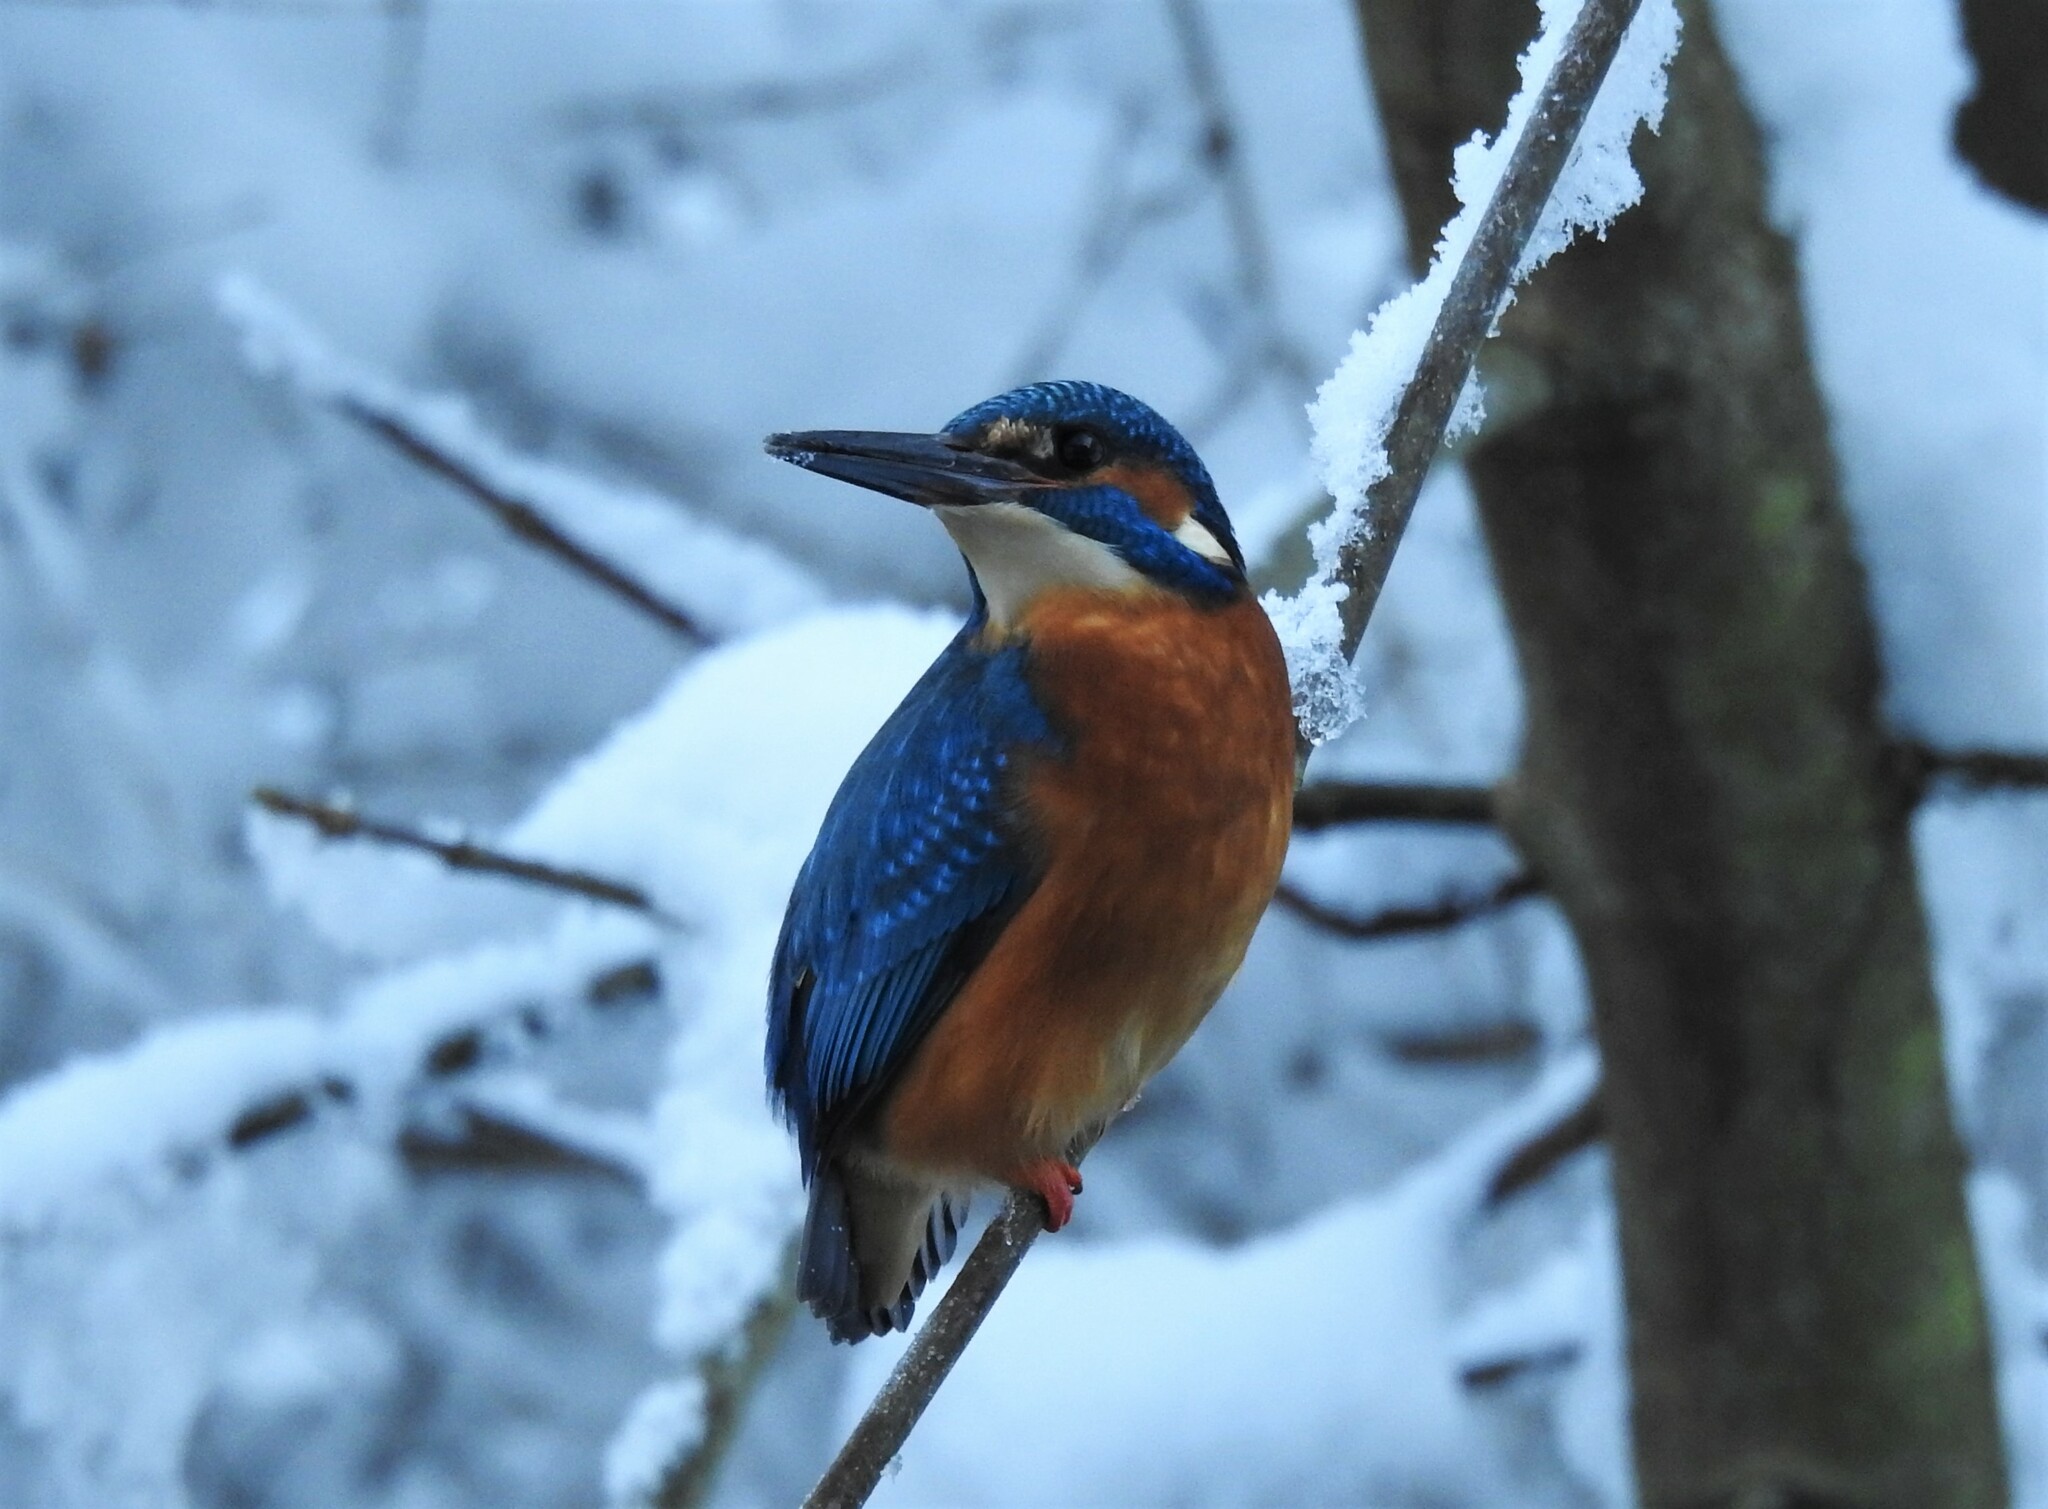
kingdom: Animalia
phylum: Chordata
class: Aves
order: Coraciiformes
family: Alcedinidae
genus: Alcedo
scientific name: Alcedo atthis
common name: Common kingfisher
